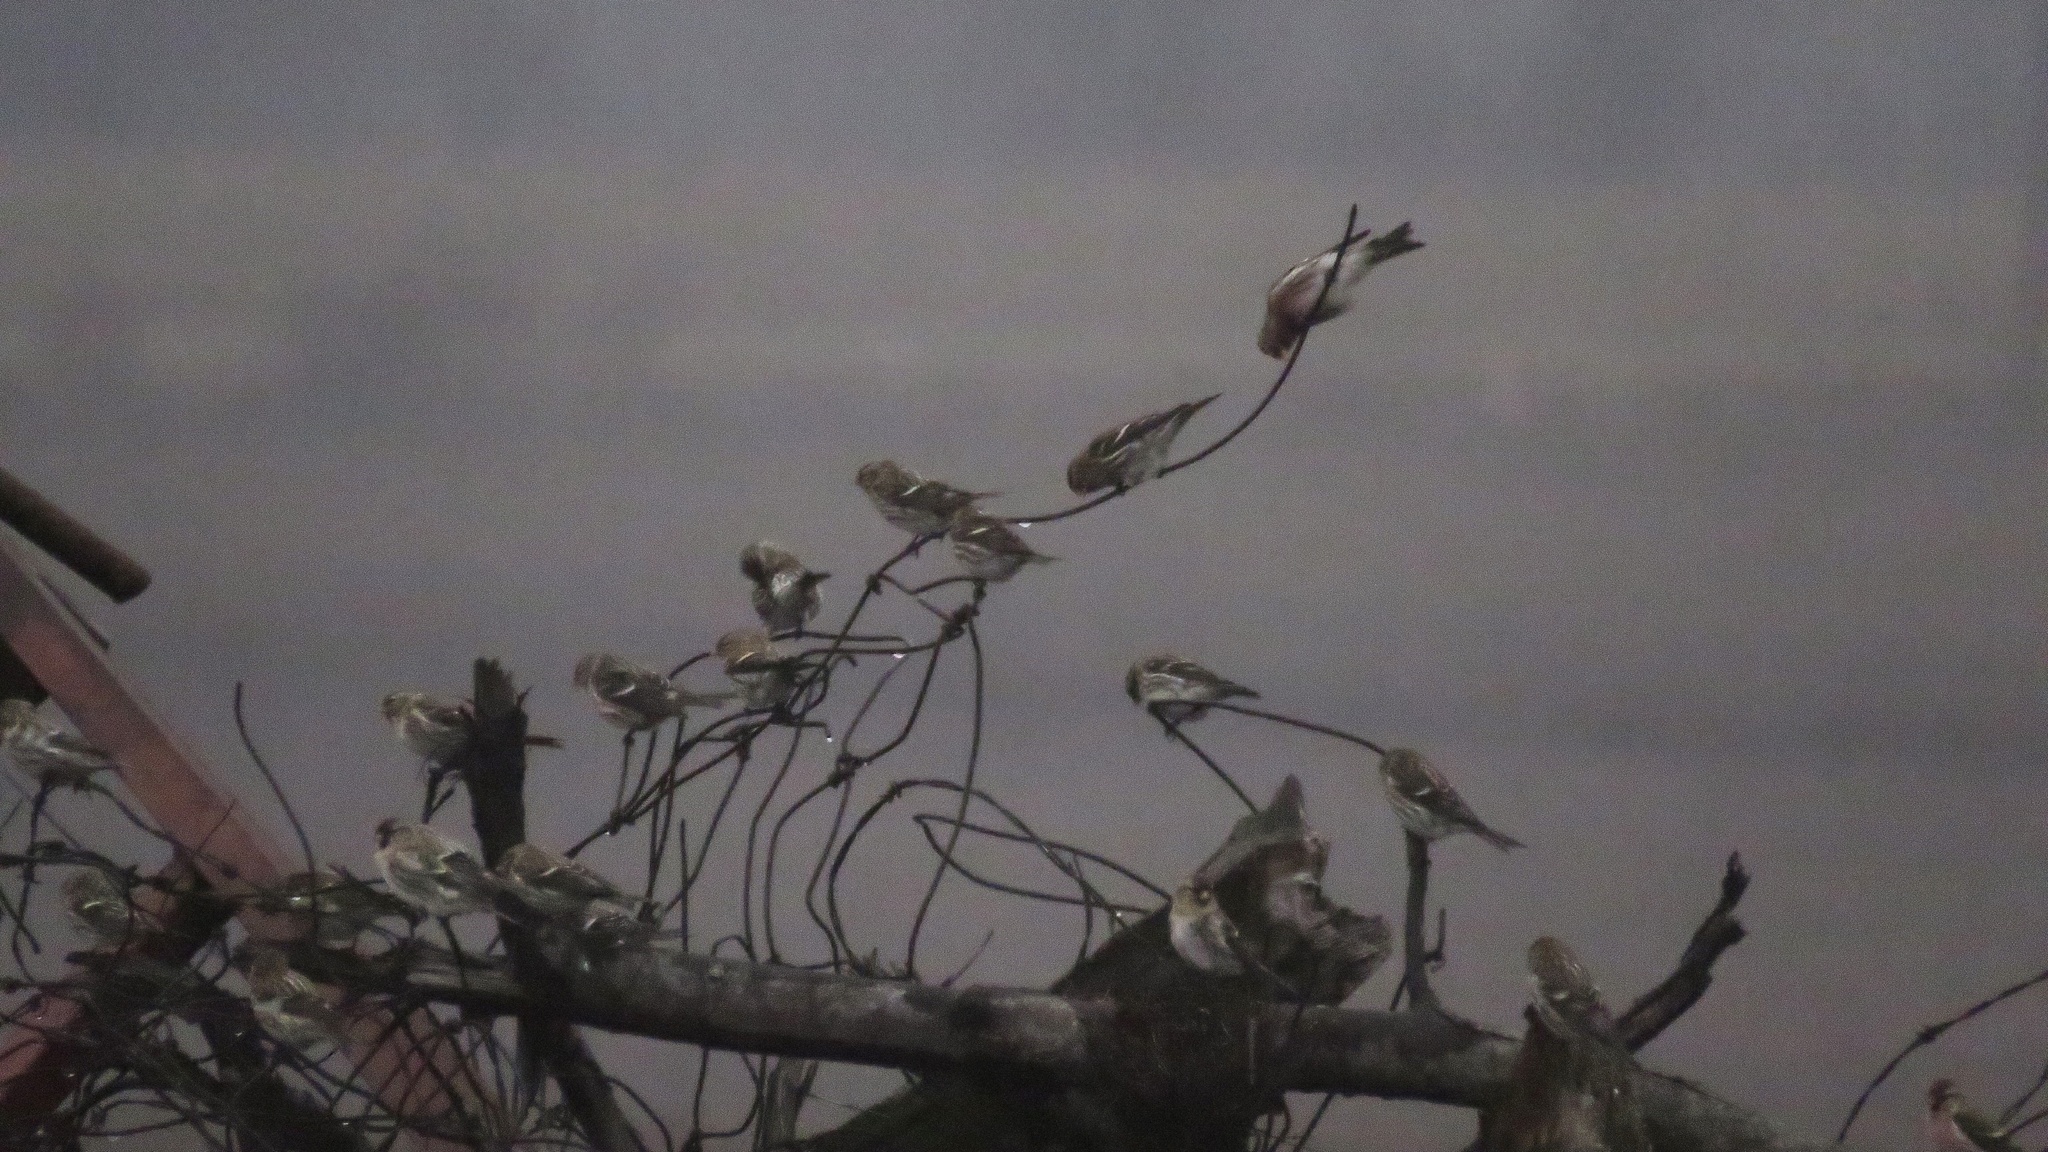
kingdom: Animalia
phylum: Chordata
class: Aves
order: Passeriformes
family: Fringillidae
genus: Acanthis
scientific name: Acanthis flammea
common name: Common redpoll
